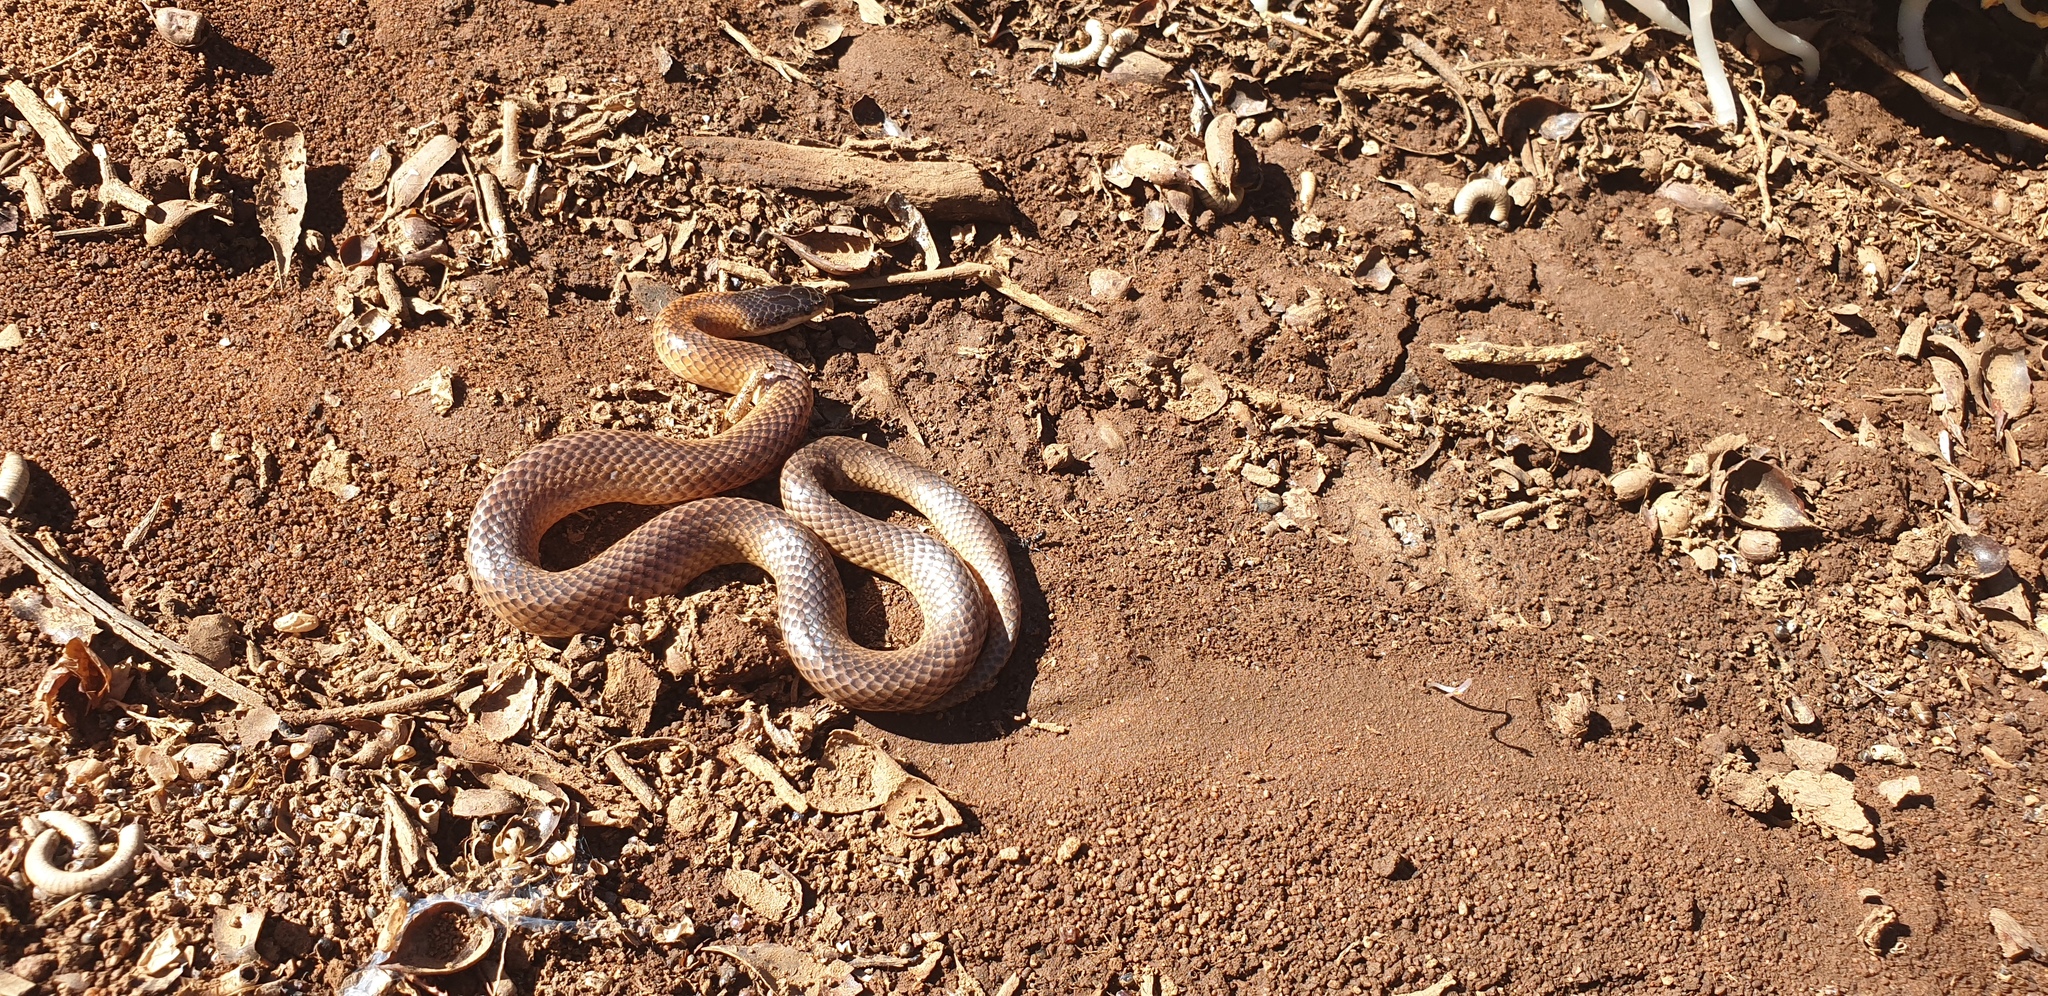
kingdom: Animalia
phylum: Chordata
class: Squamata
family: Elapidae
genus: Suta
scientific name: Suta nigriceps
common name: Mallee black-backed snake
